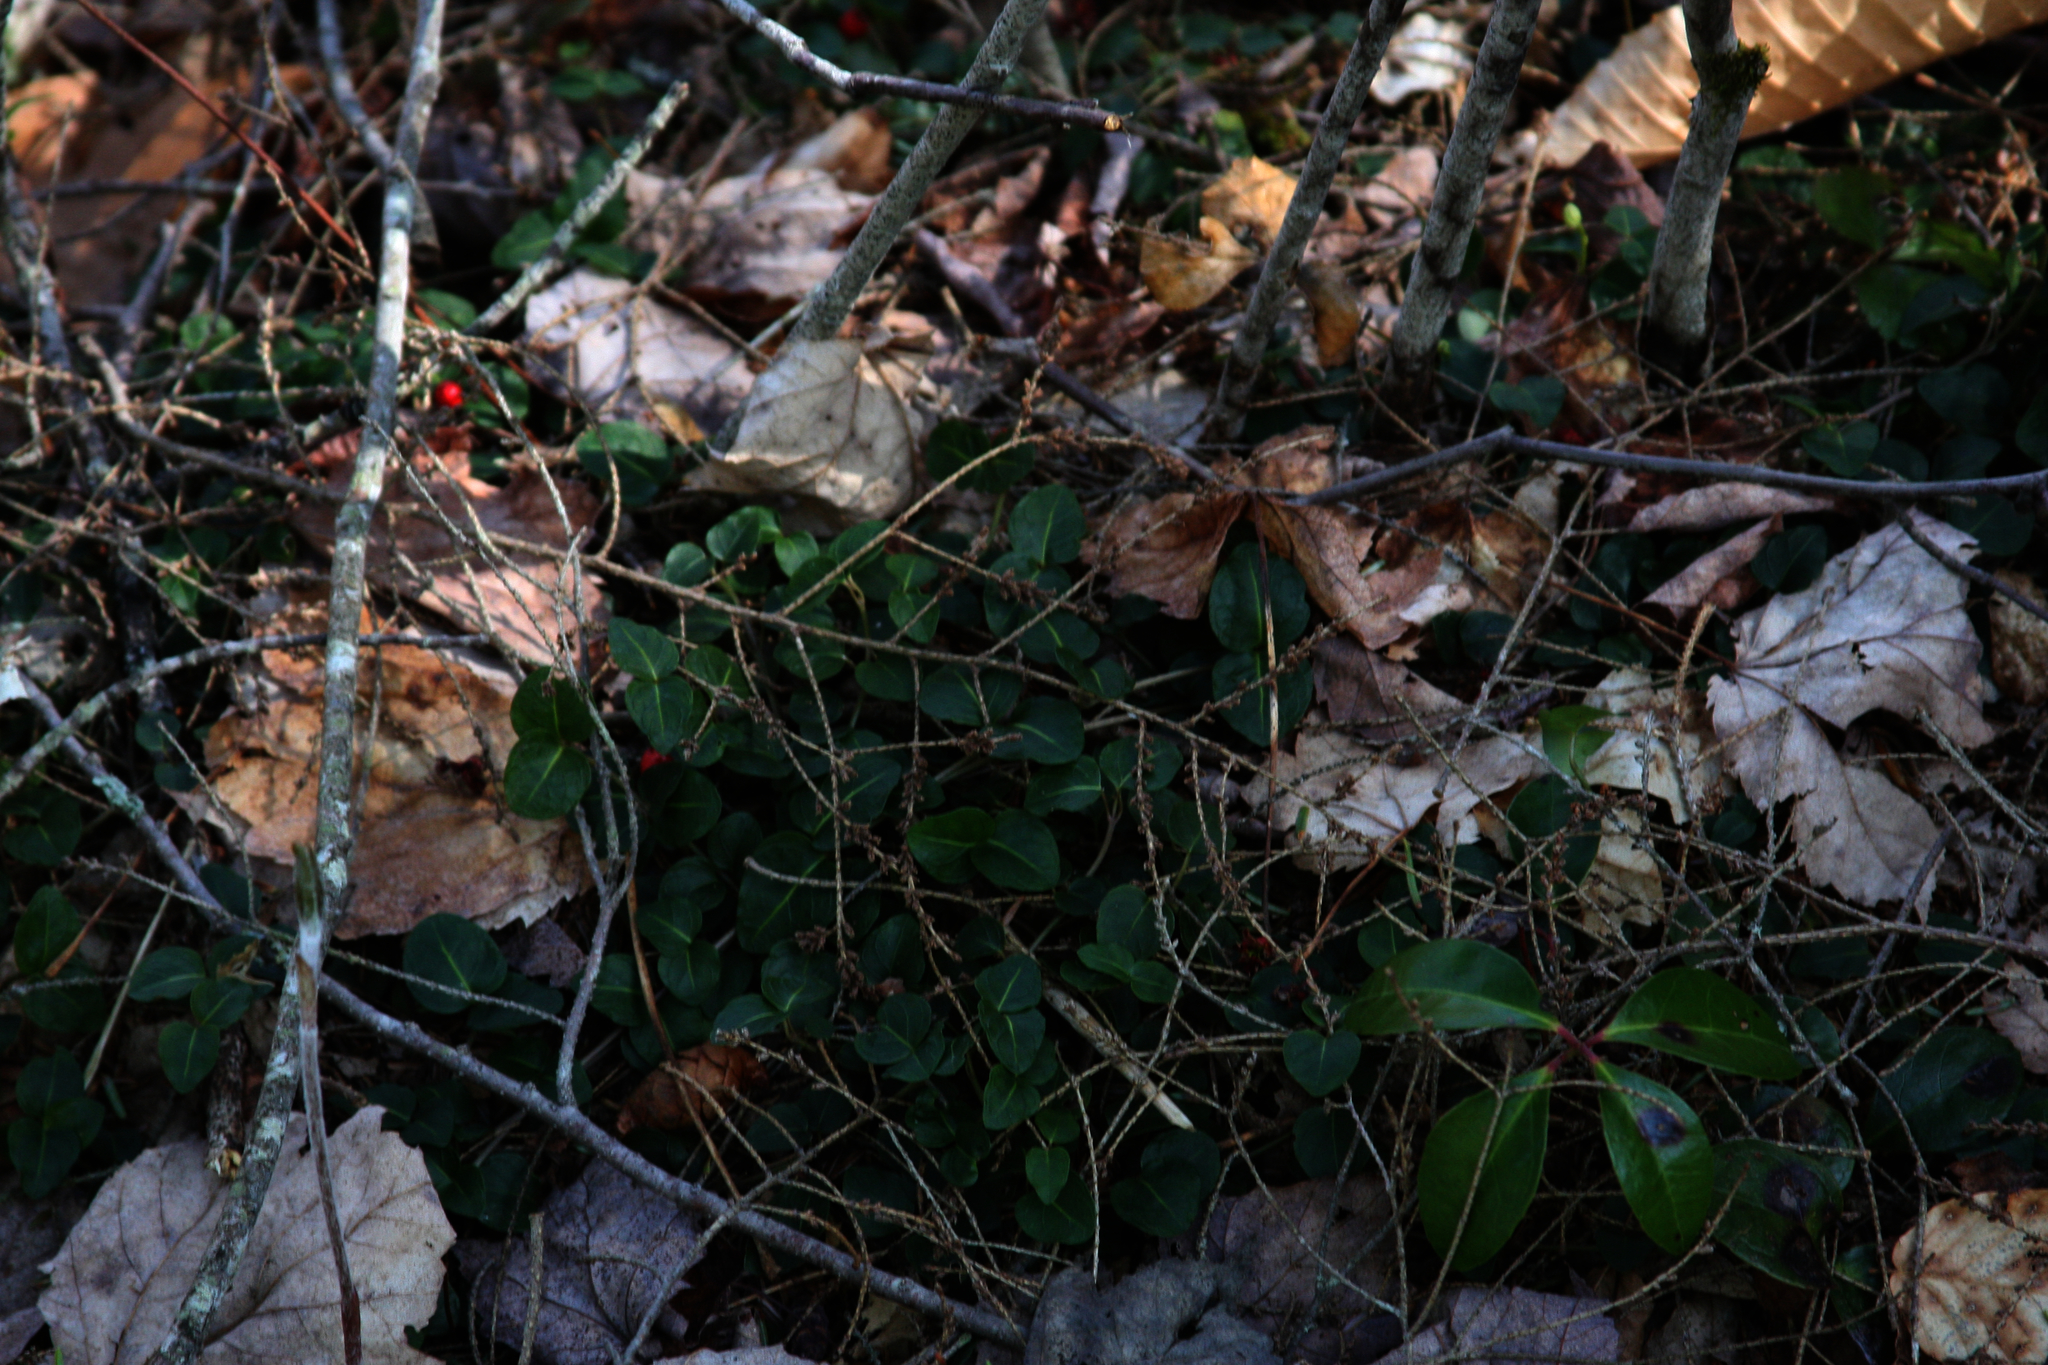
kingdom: Plantae
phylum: Tracheophyta
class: Magnoliopsida
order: Gentianales
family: Rubiaceae
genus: Mitchella
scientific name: Mitchella repens
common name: Partridge-berry
